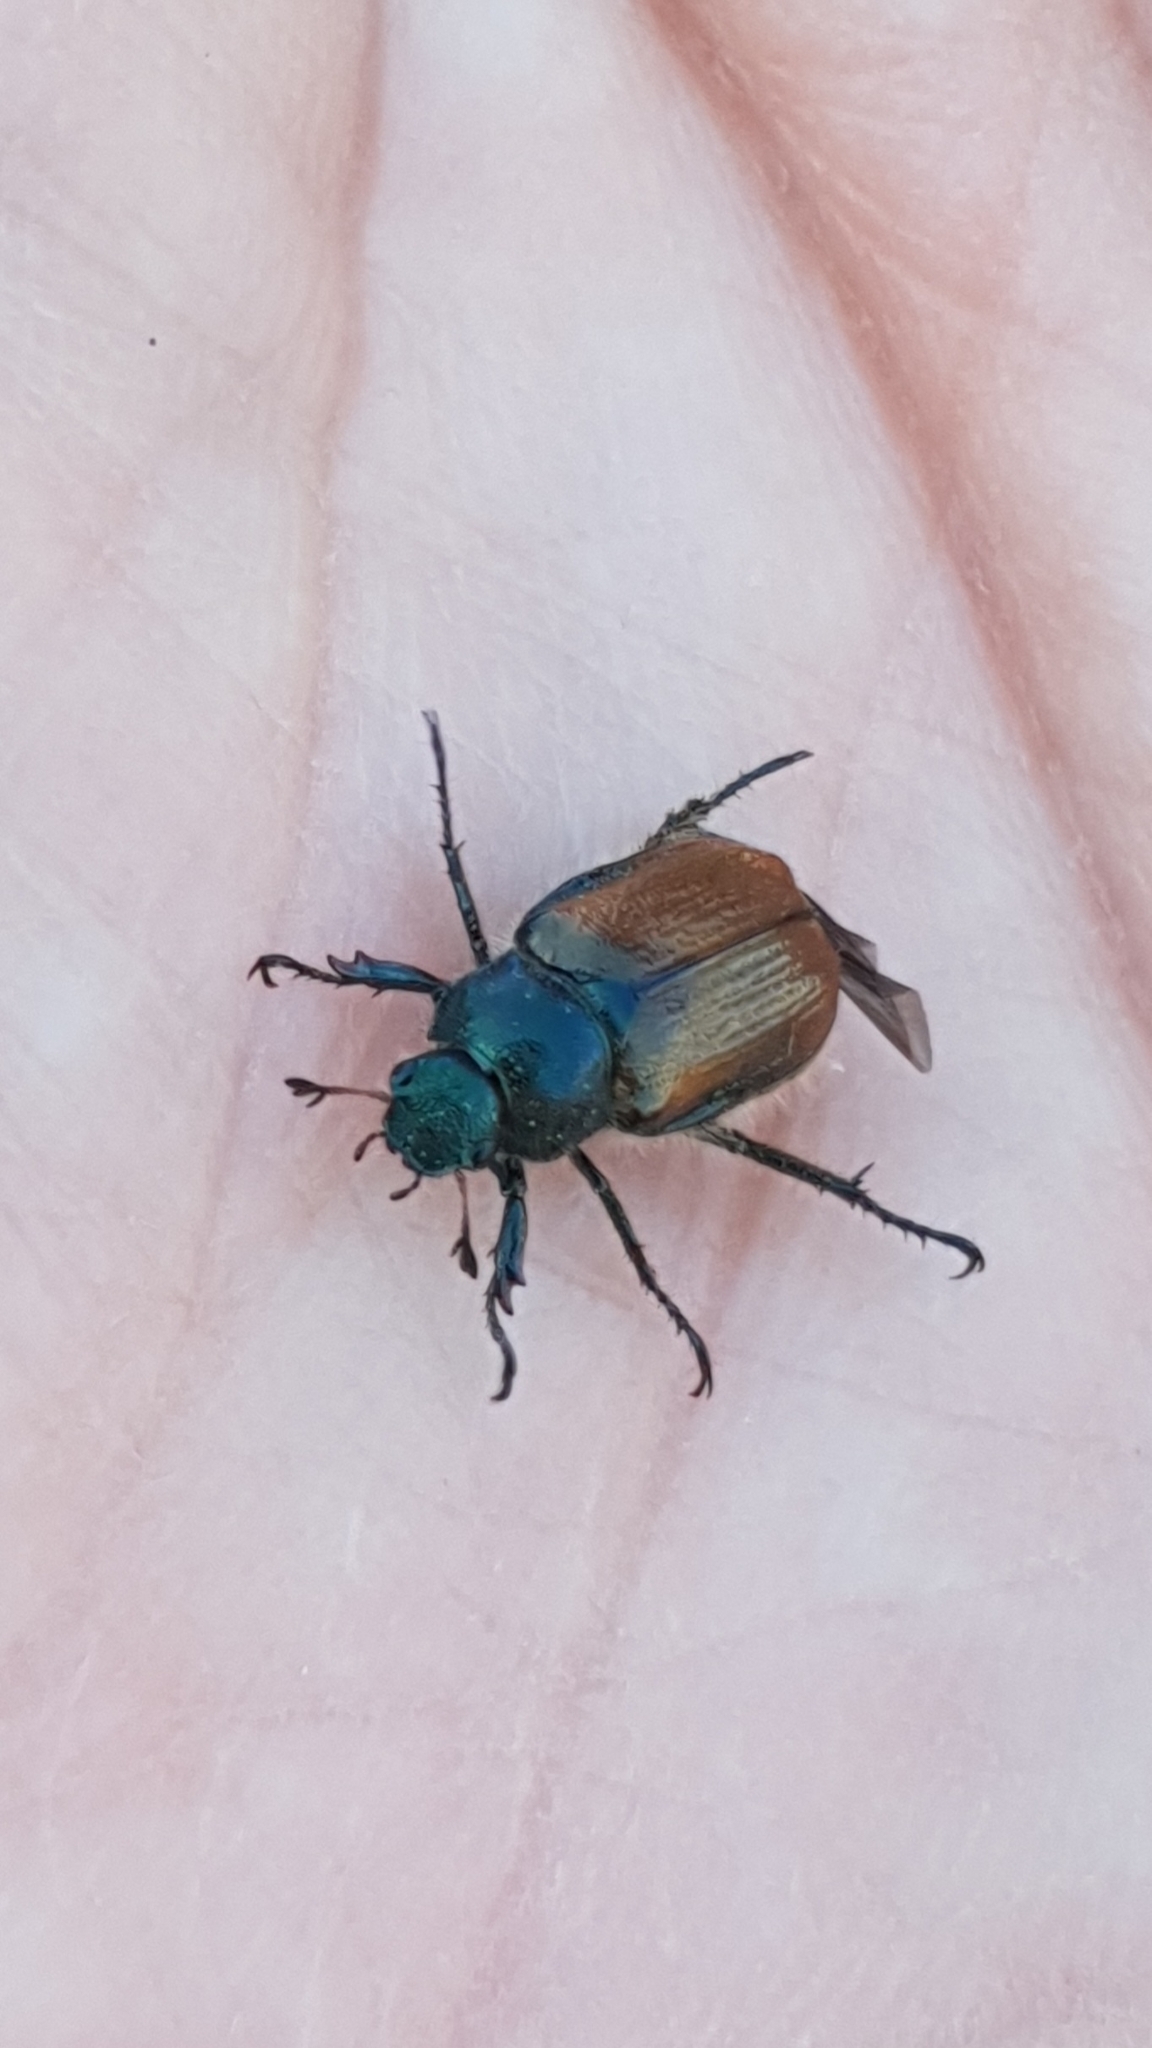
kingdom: Animalia
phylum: Arthropoda
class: Insecta
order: Coleoptera
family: Scarabaeidae
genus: Phyllopertha
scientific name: Phyllopertha horticola
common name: Garden chafer
